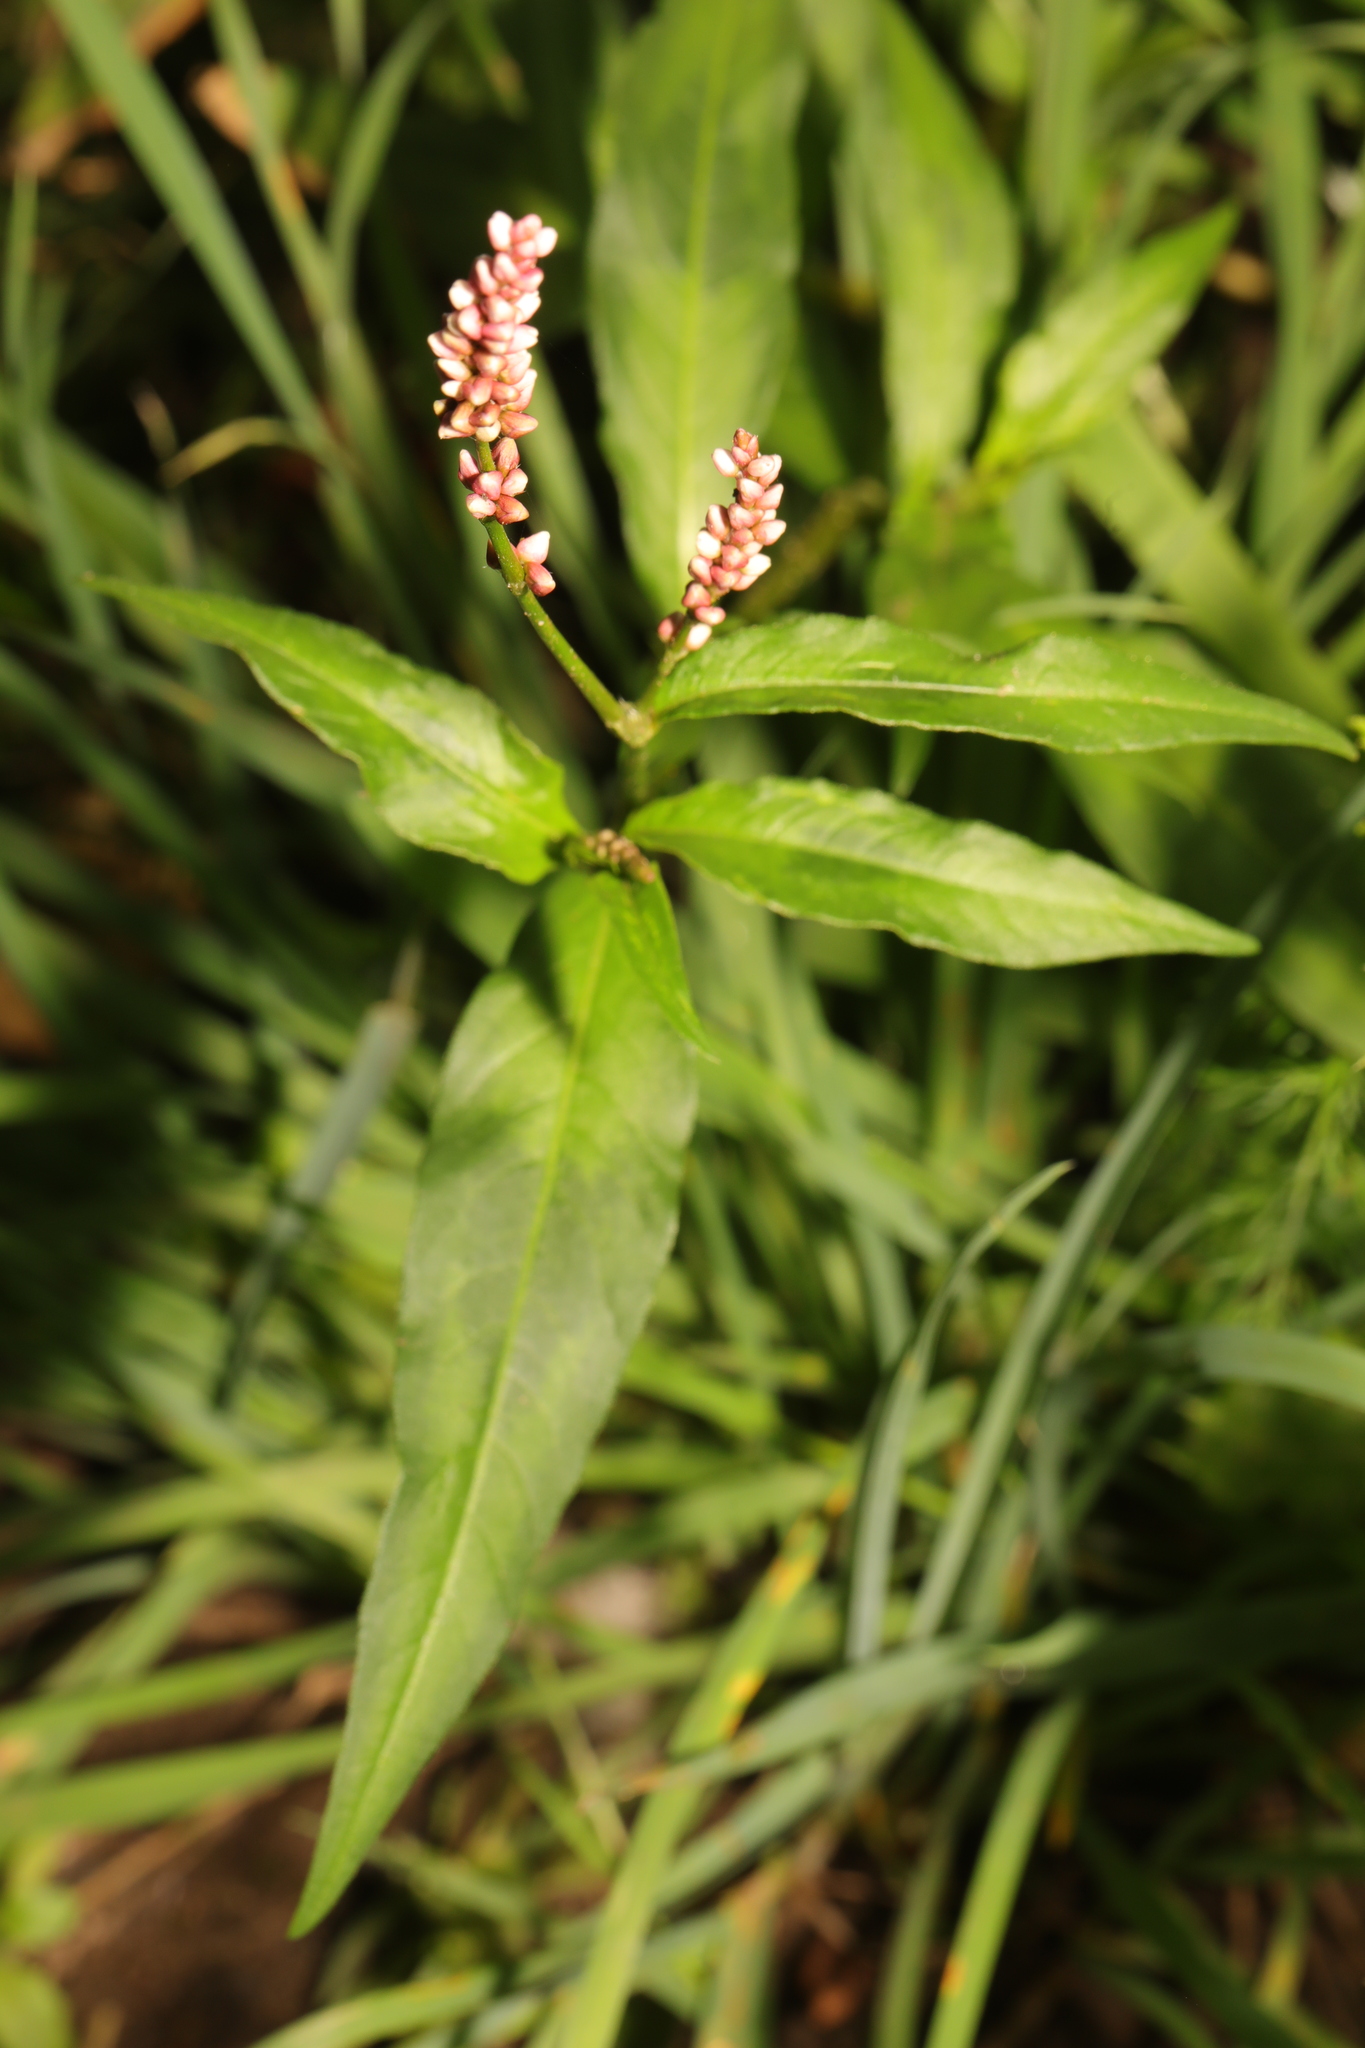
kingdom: Plantae
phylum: Tracheophyta
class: Magnoliopsida
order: Caryophyllales
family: Polygonaceae
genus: Persicaria
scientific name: Persicaria maculosa
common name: Redshank
